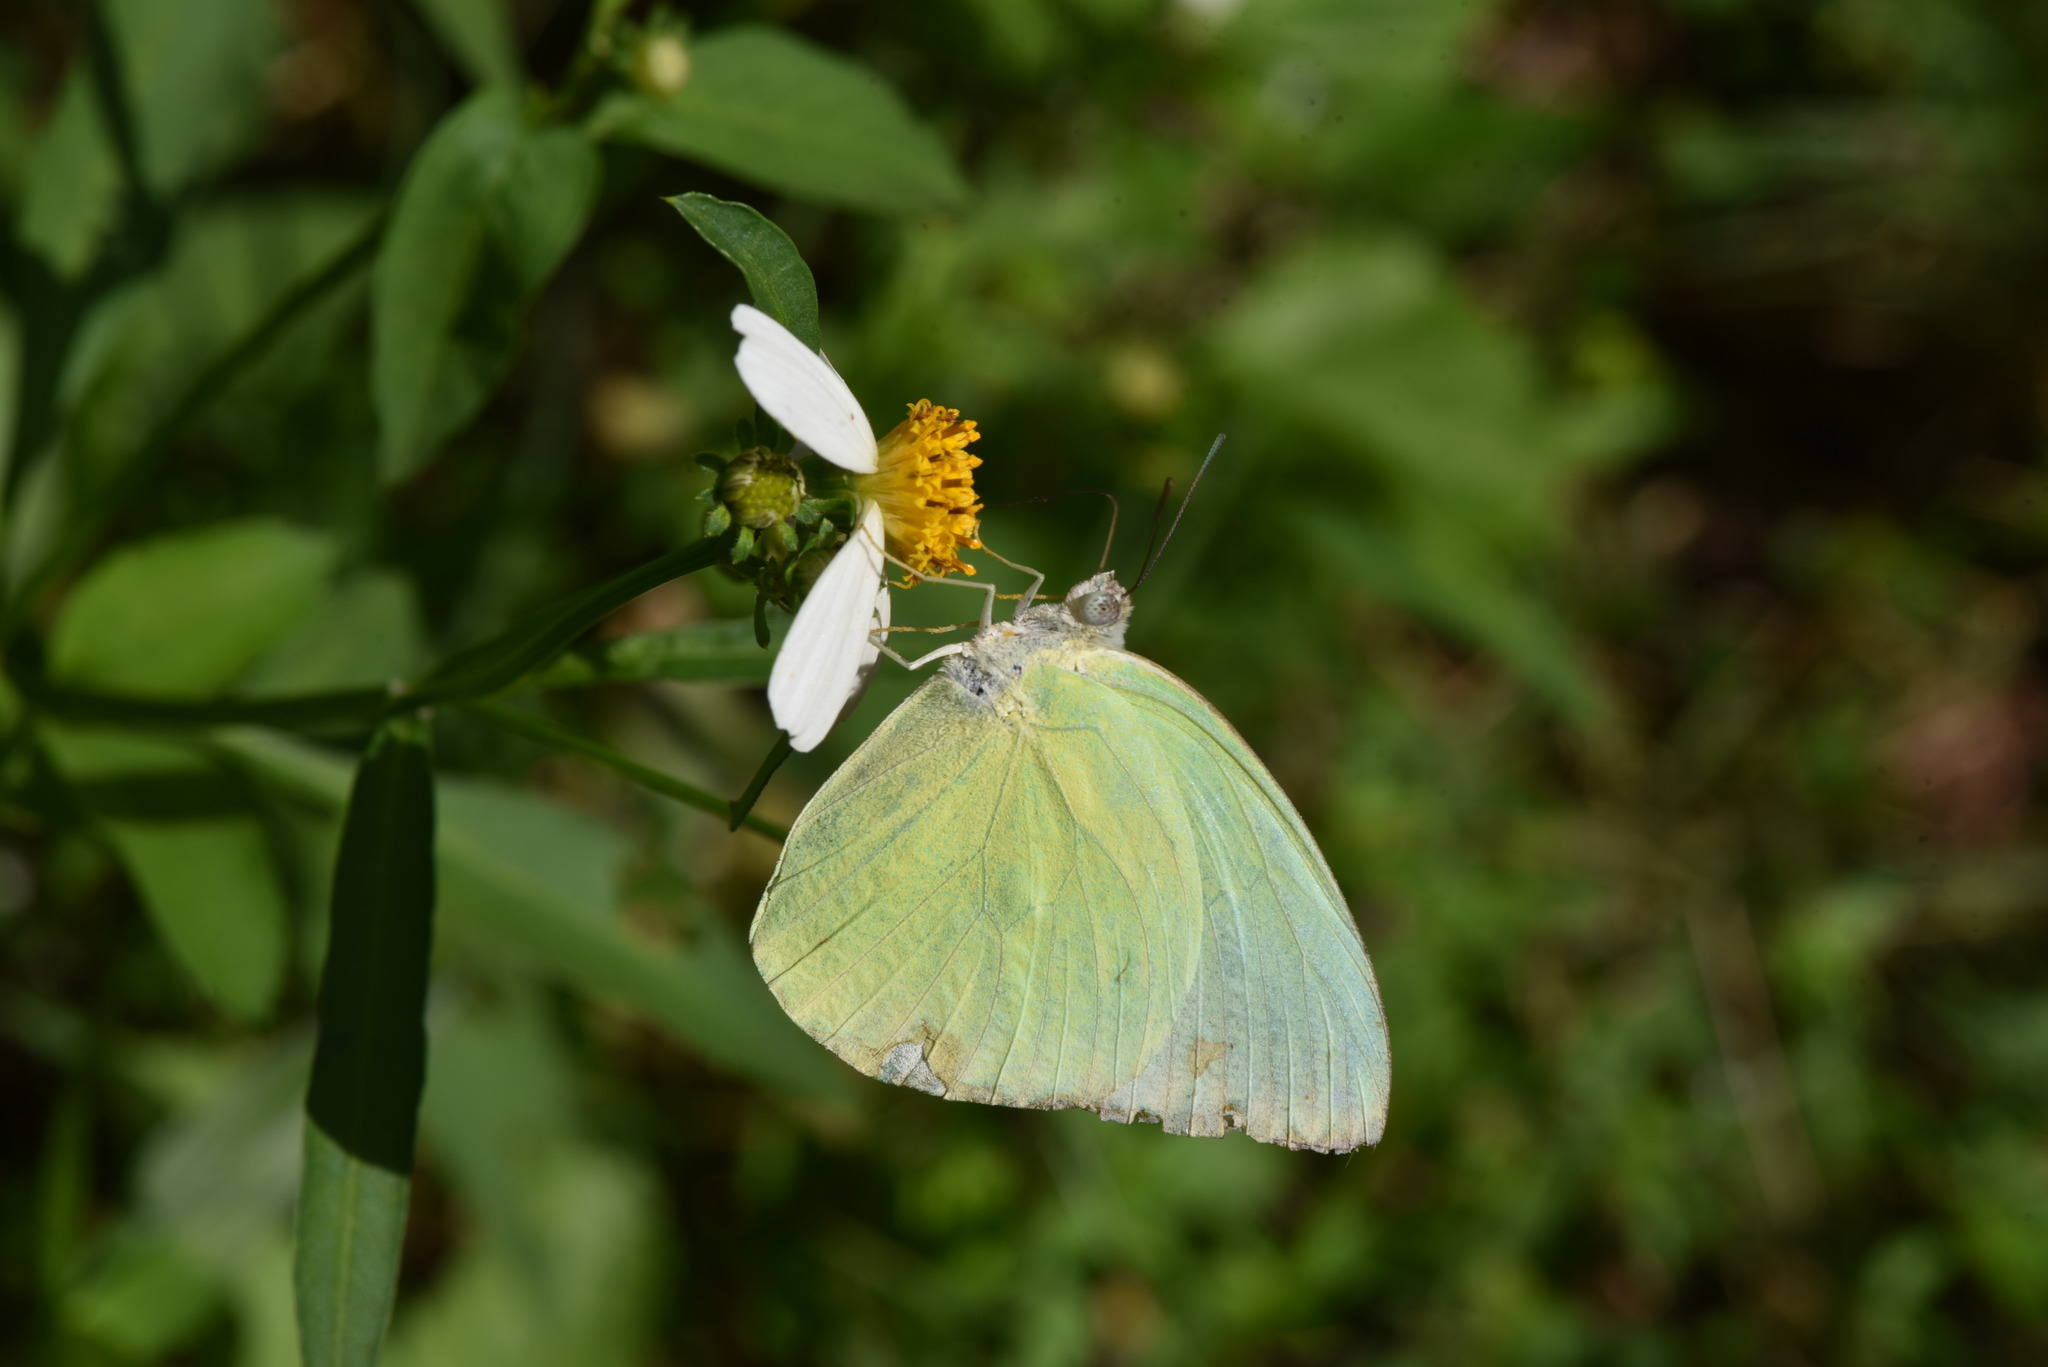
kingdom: Animalia
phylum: Arthropoda
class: Insecta
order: Lepidoptera
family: Pieridae
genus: Catopsilia
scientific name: Catopsilia pomona
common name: Common emigrant
